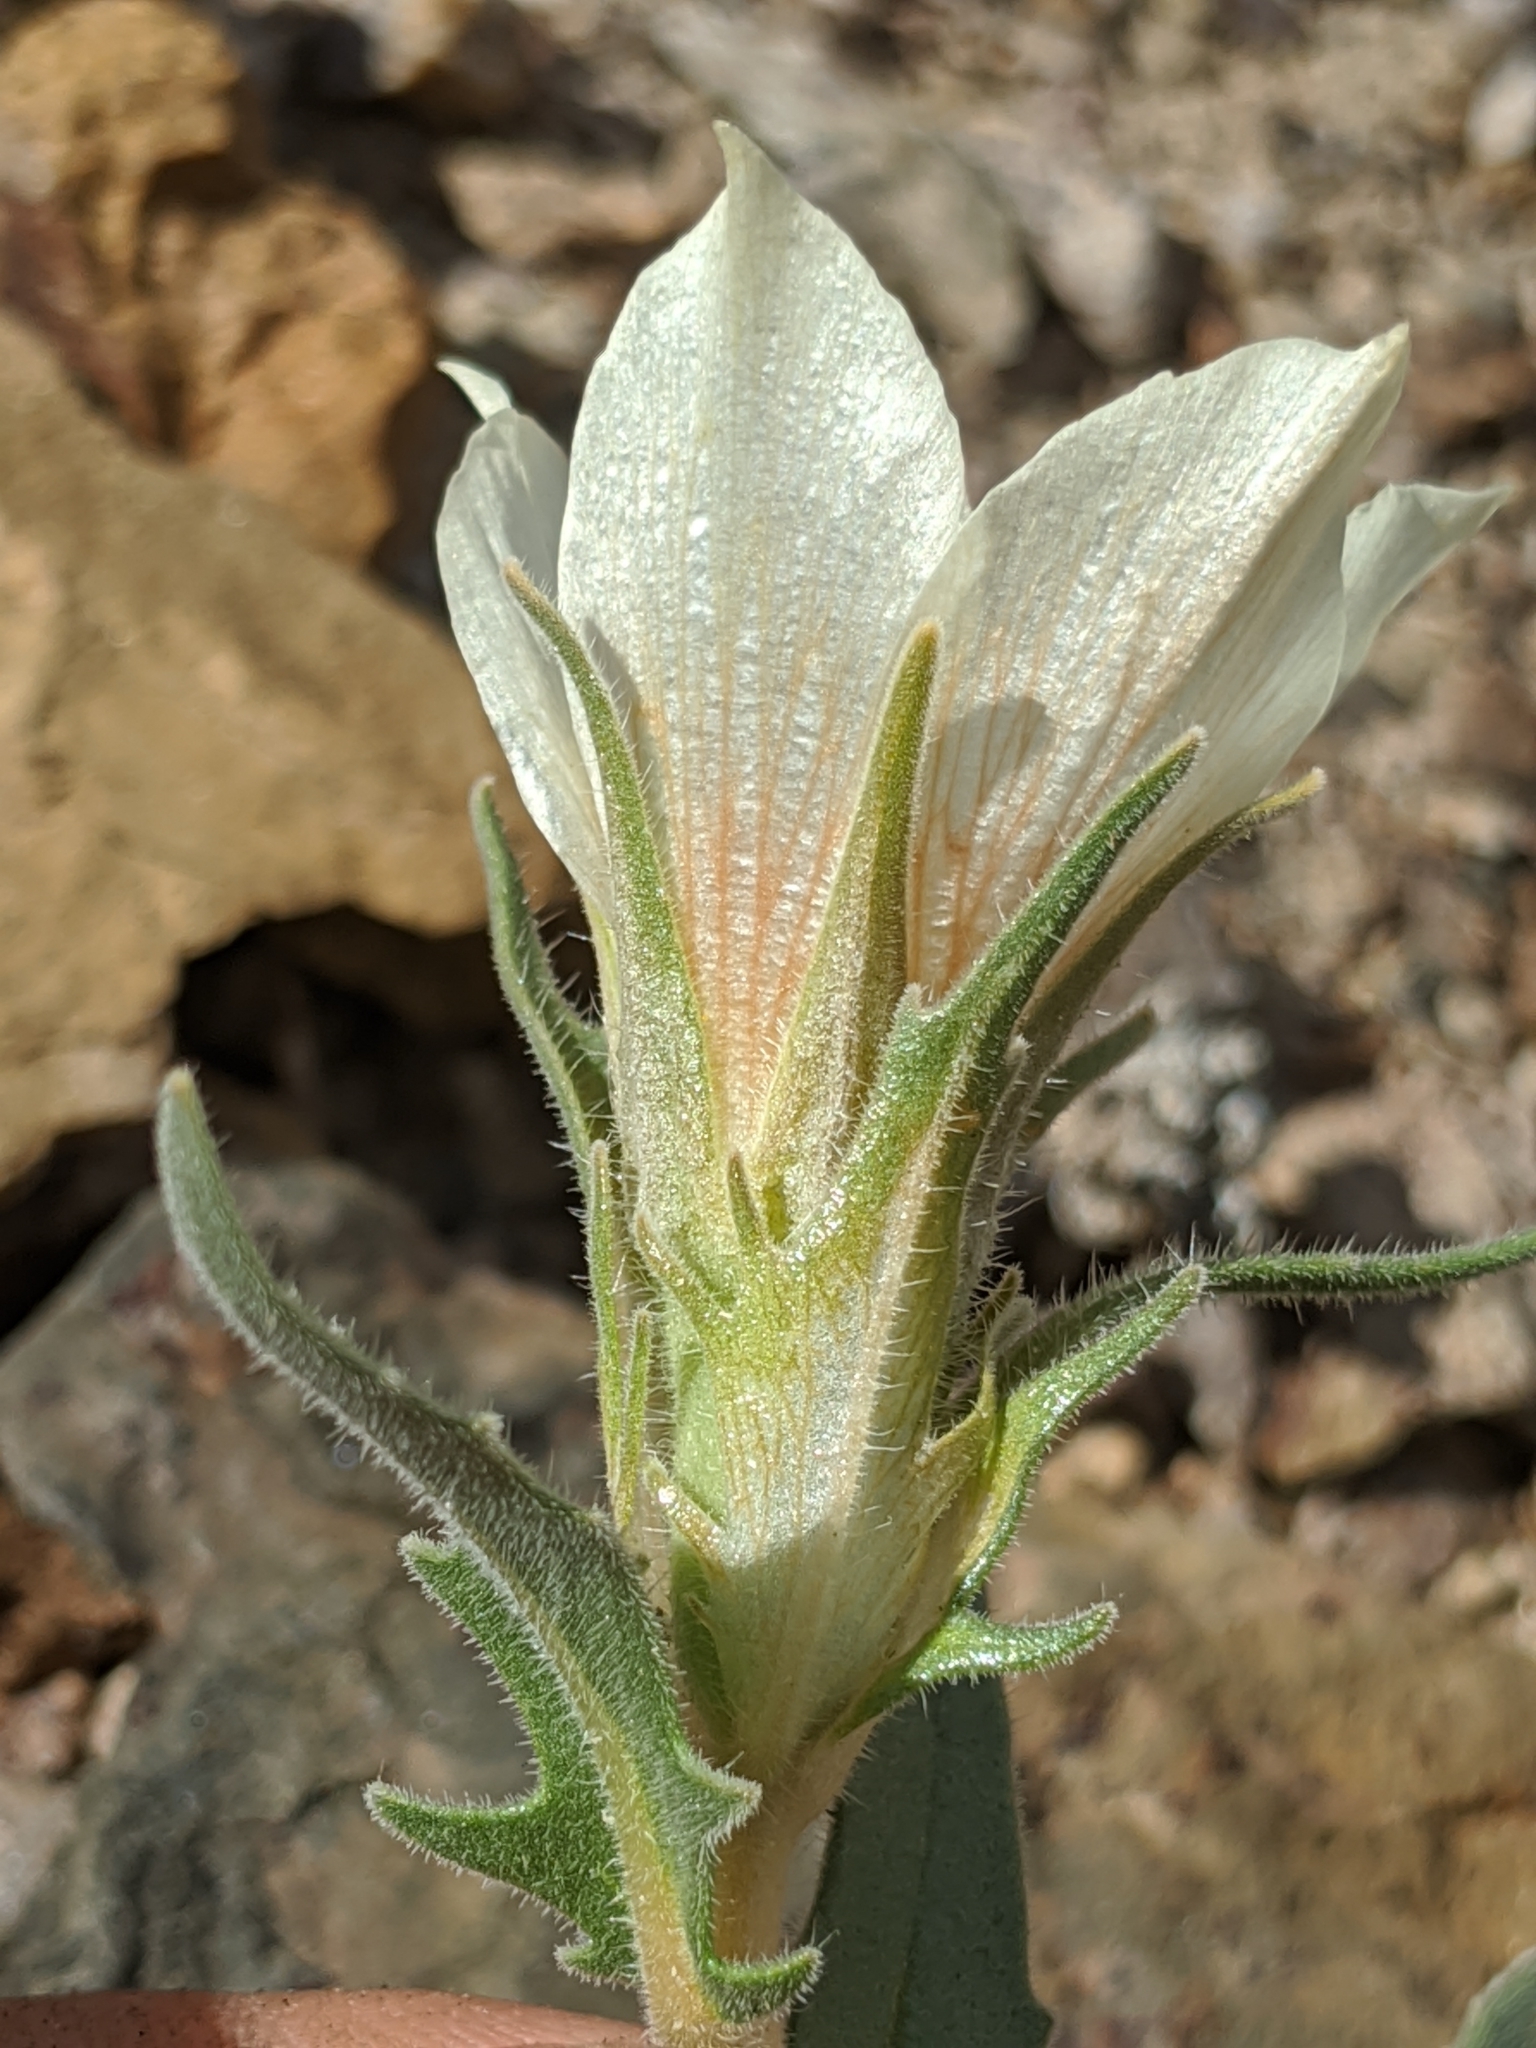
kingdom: Plantae
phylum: Tracheophyta
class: Magnoliopsida
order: Cornales
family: Loasaceae
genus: Mentzelia
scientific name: Mentzelia involucrata
